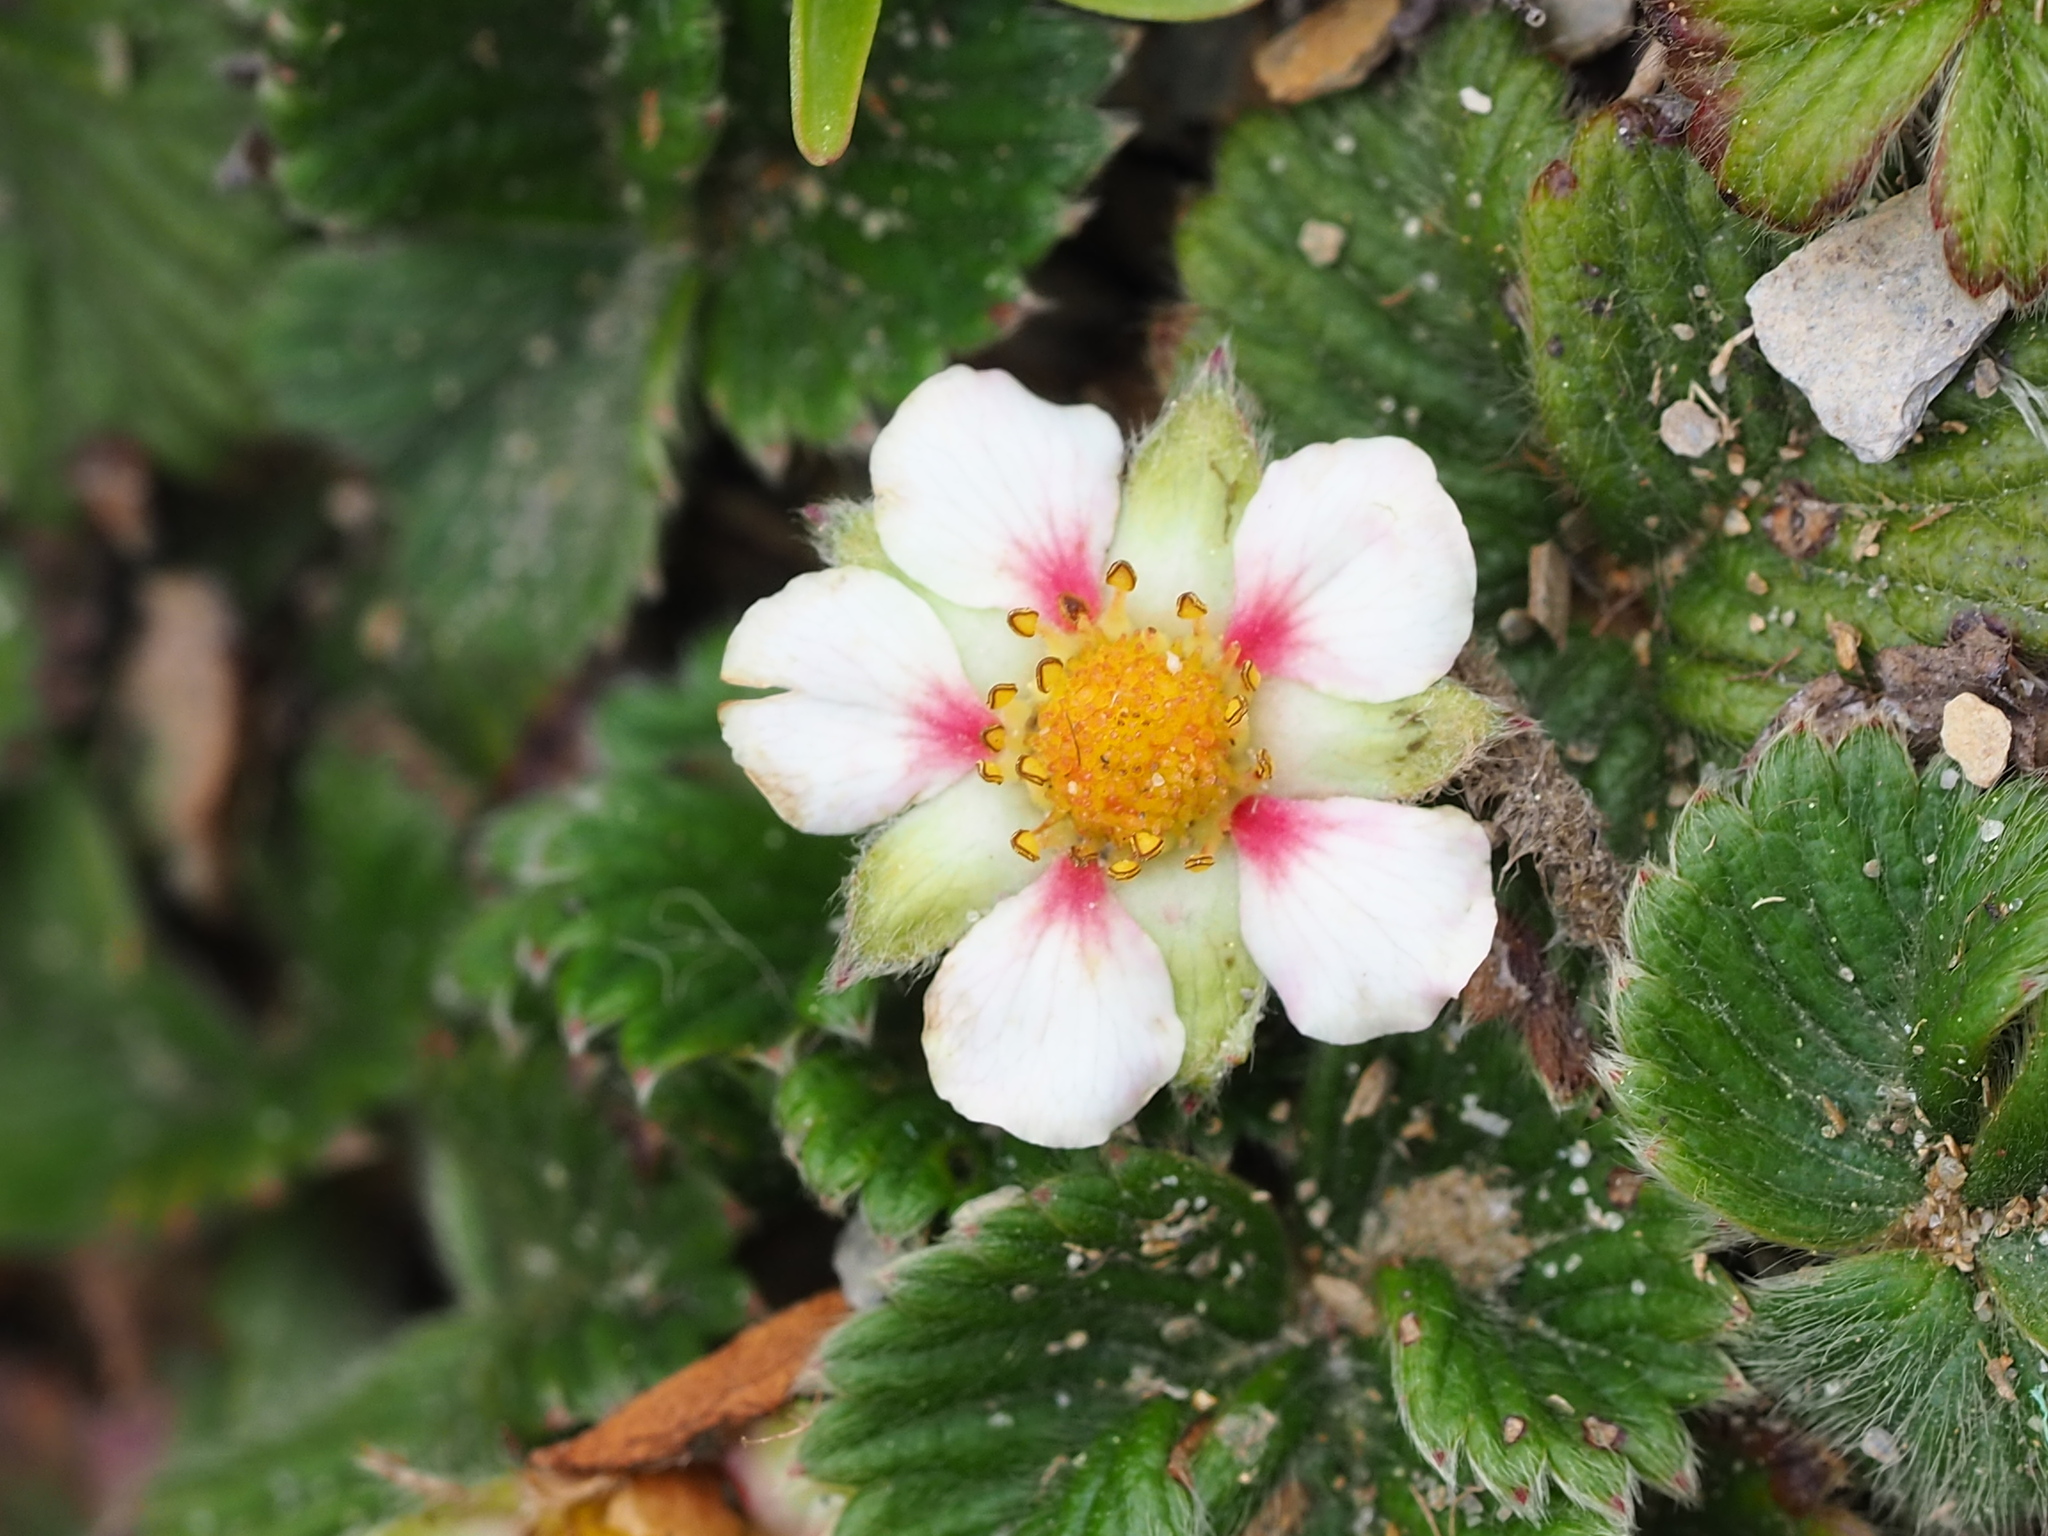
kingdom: Plantae
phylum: Tracheophyta
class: Magnoliopsida
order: Rosales
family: Rosaceae
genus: Fragaria
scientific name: Fragaria nilgerrensis
